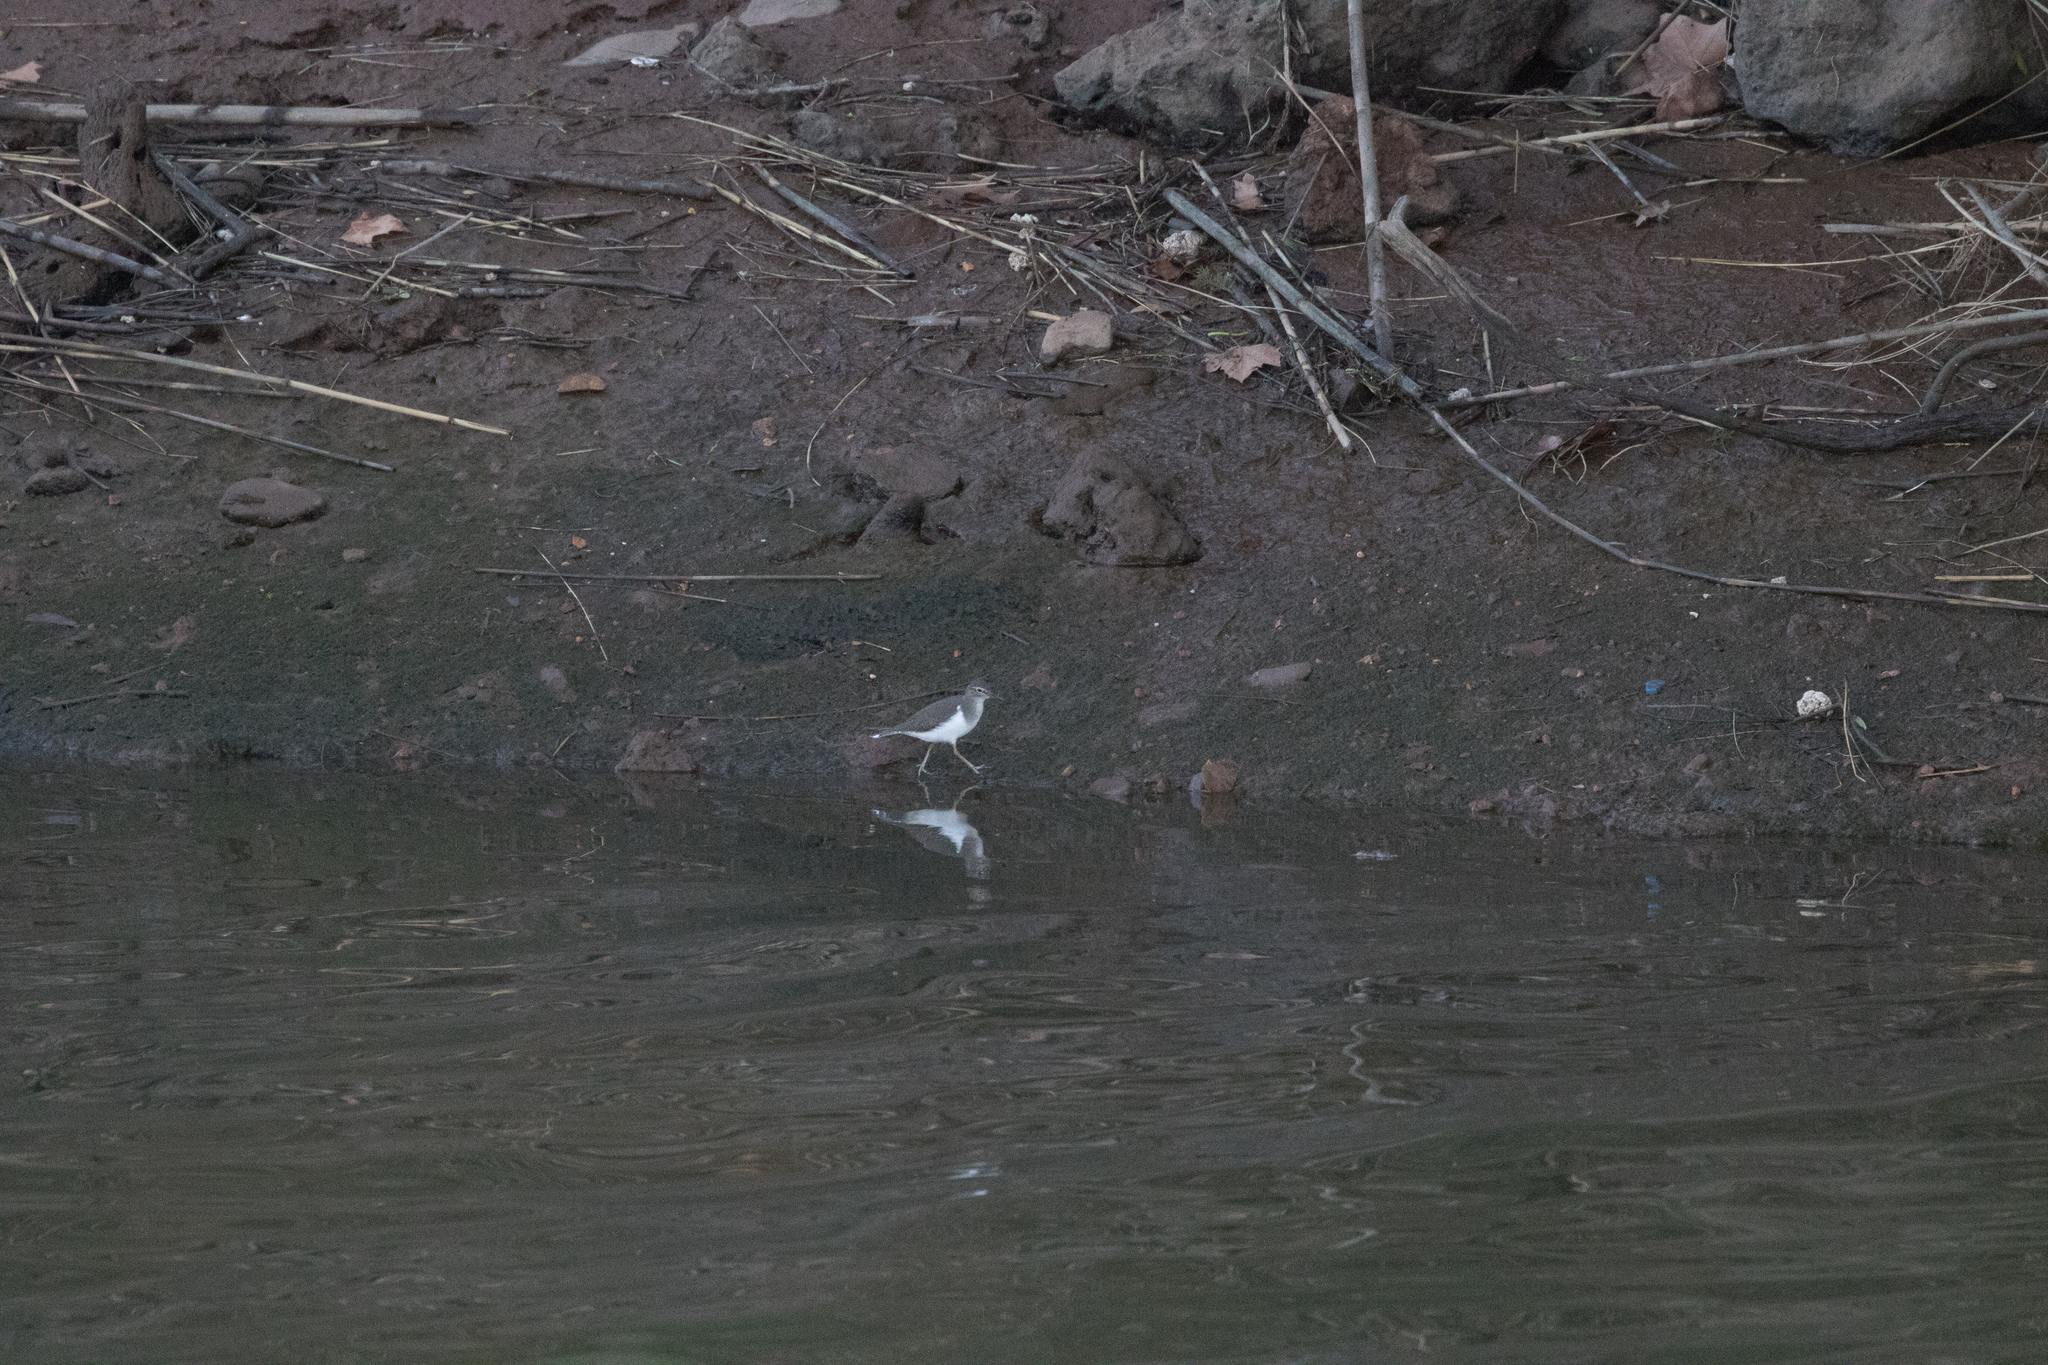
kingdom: Animalia
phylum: Chordata
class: Aves
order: Charadriiformes
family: Scolopacidae
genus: Actitis
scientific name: Actitis hypoleucos
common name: Common sandpiper
